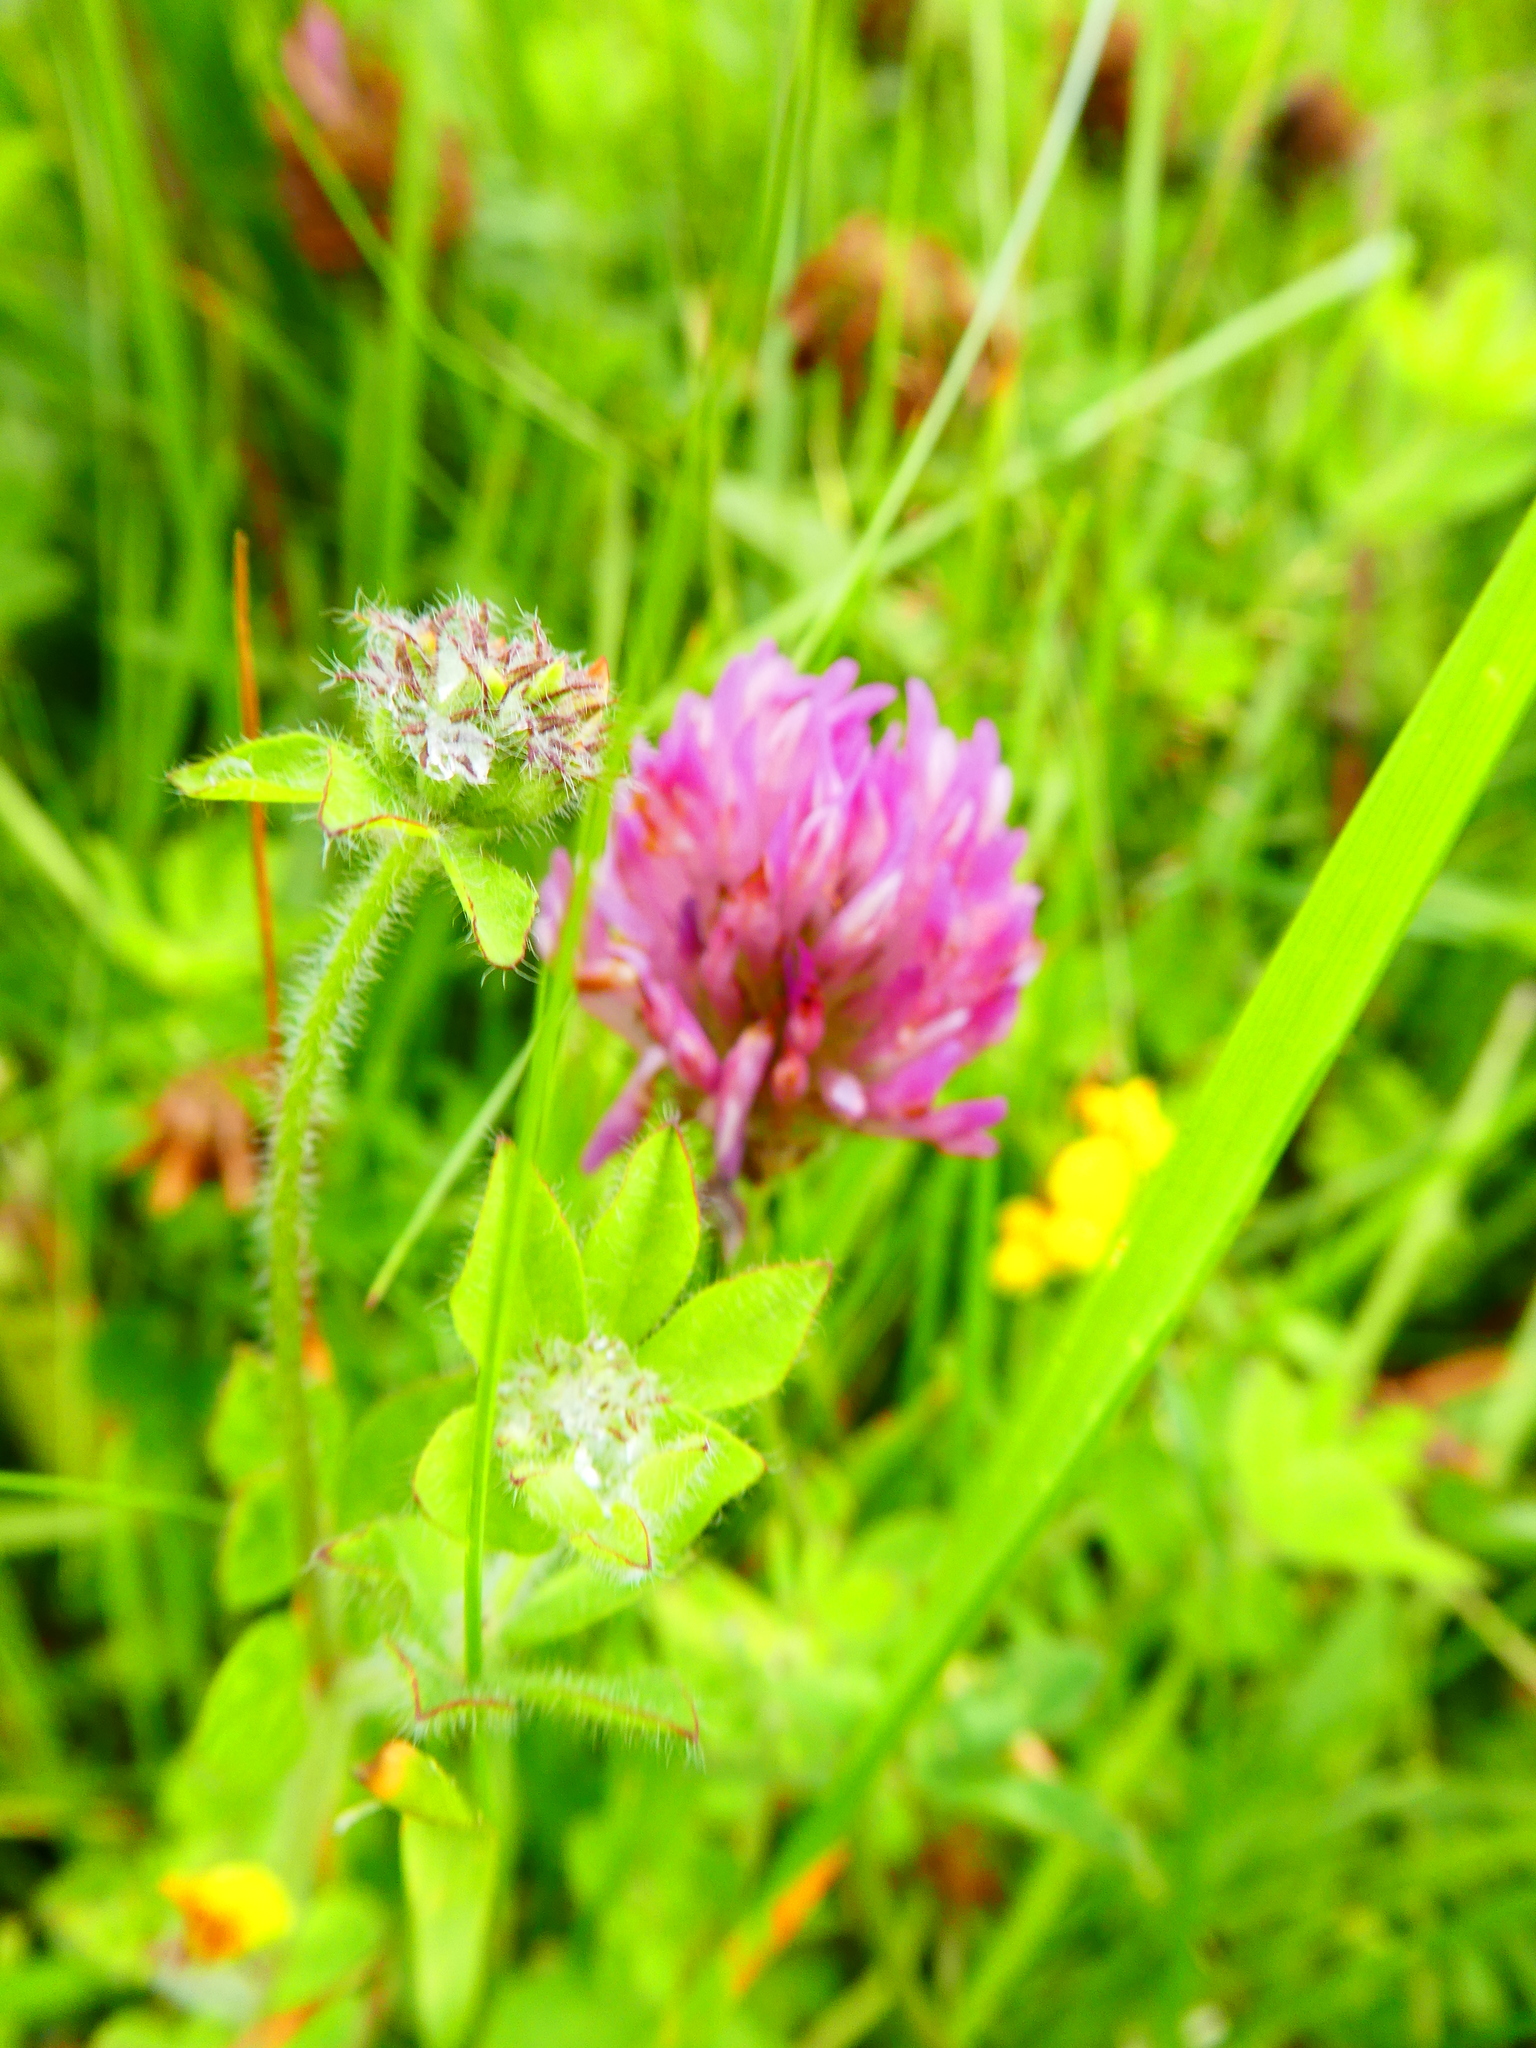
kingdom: Plantae
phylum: Tracheophyta
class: Magnoliopsida
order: Fabales
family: Fabaceae
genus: Trifolium
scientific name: Trifolium pratense
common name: Red clover
